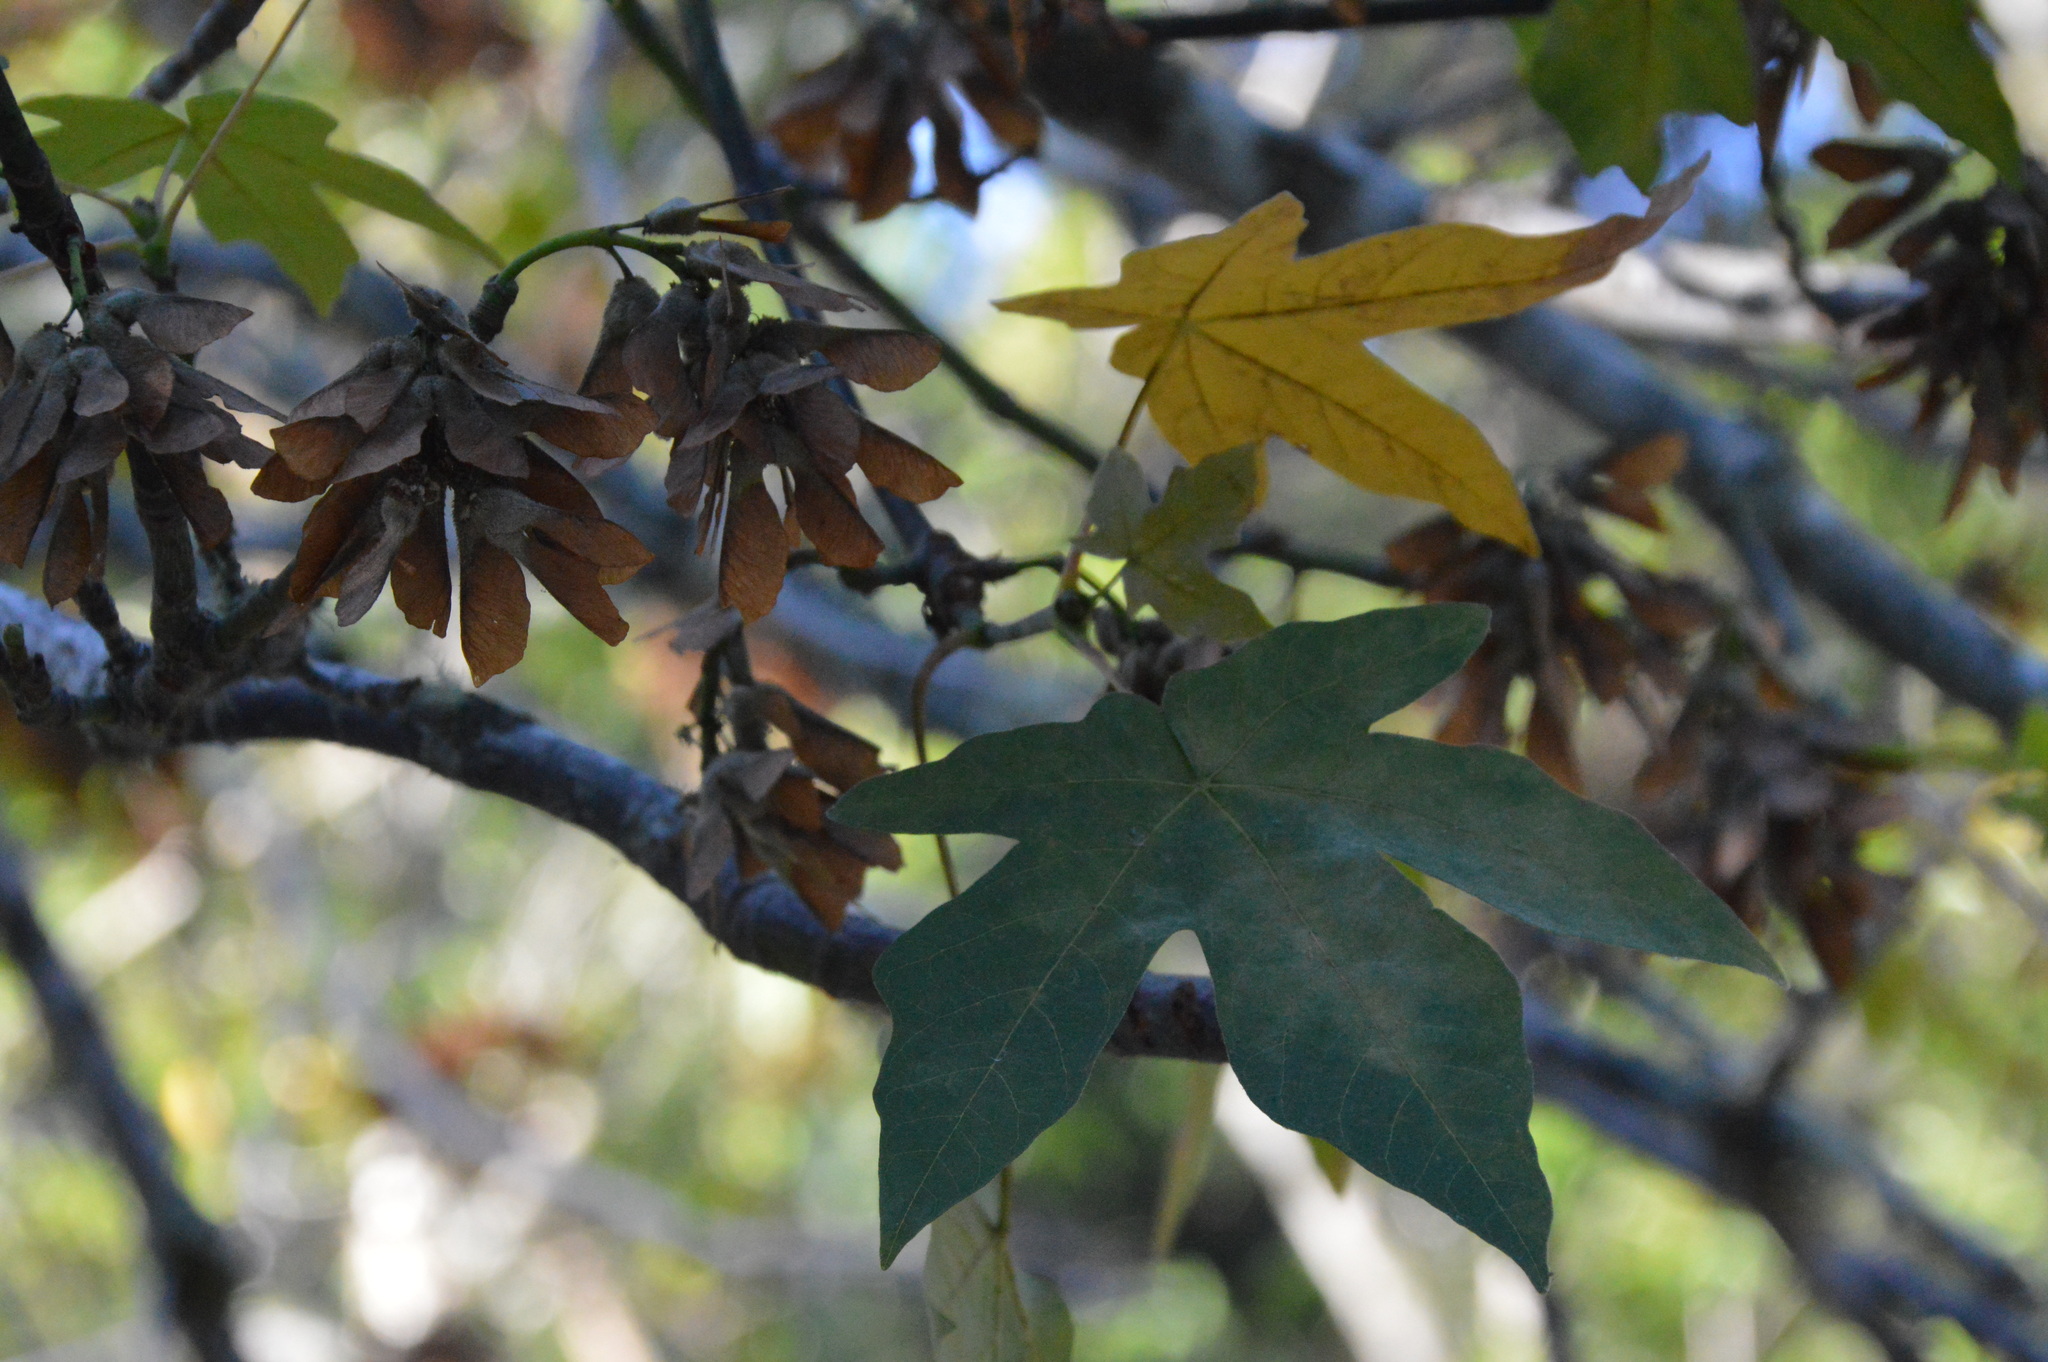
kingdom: Plantae
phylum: Tracheophyta
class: Magnoliopsida
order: Sapindales
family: Sapindaceae
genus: Acer
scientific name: Acer macrophyllum
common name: Oregon maple
